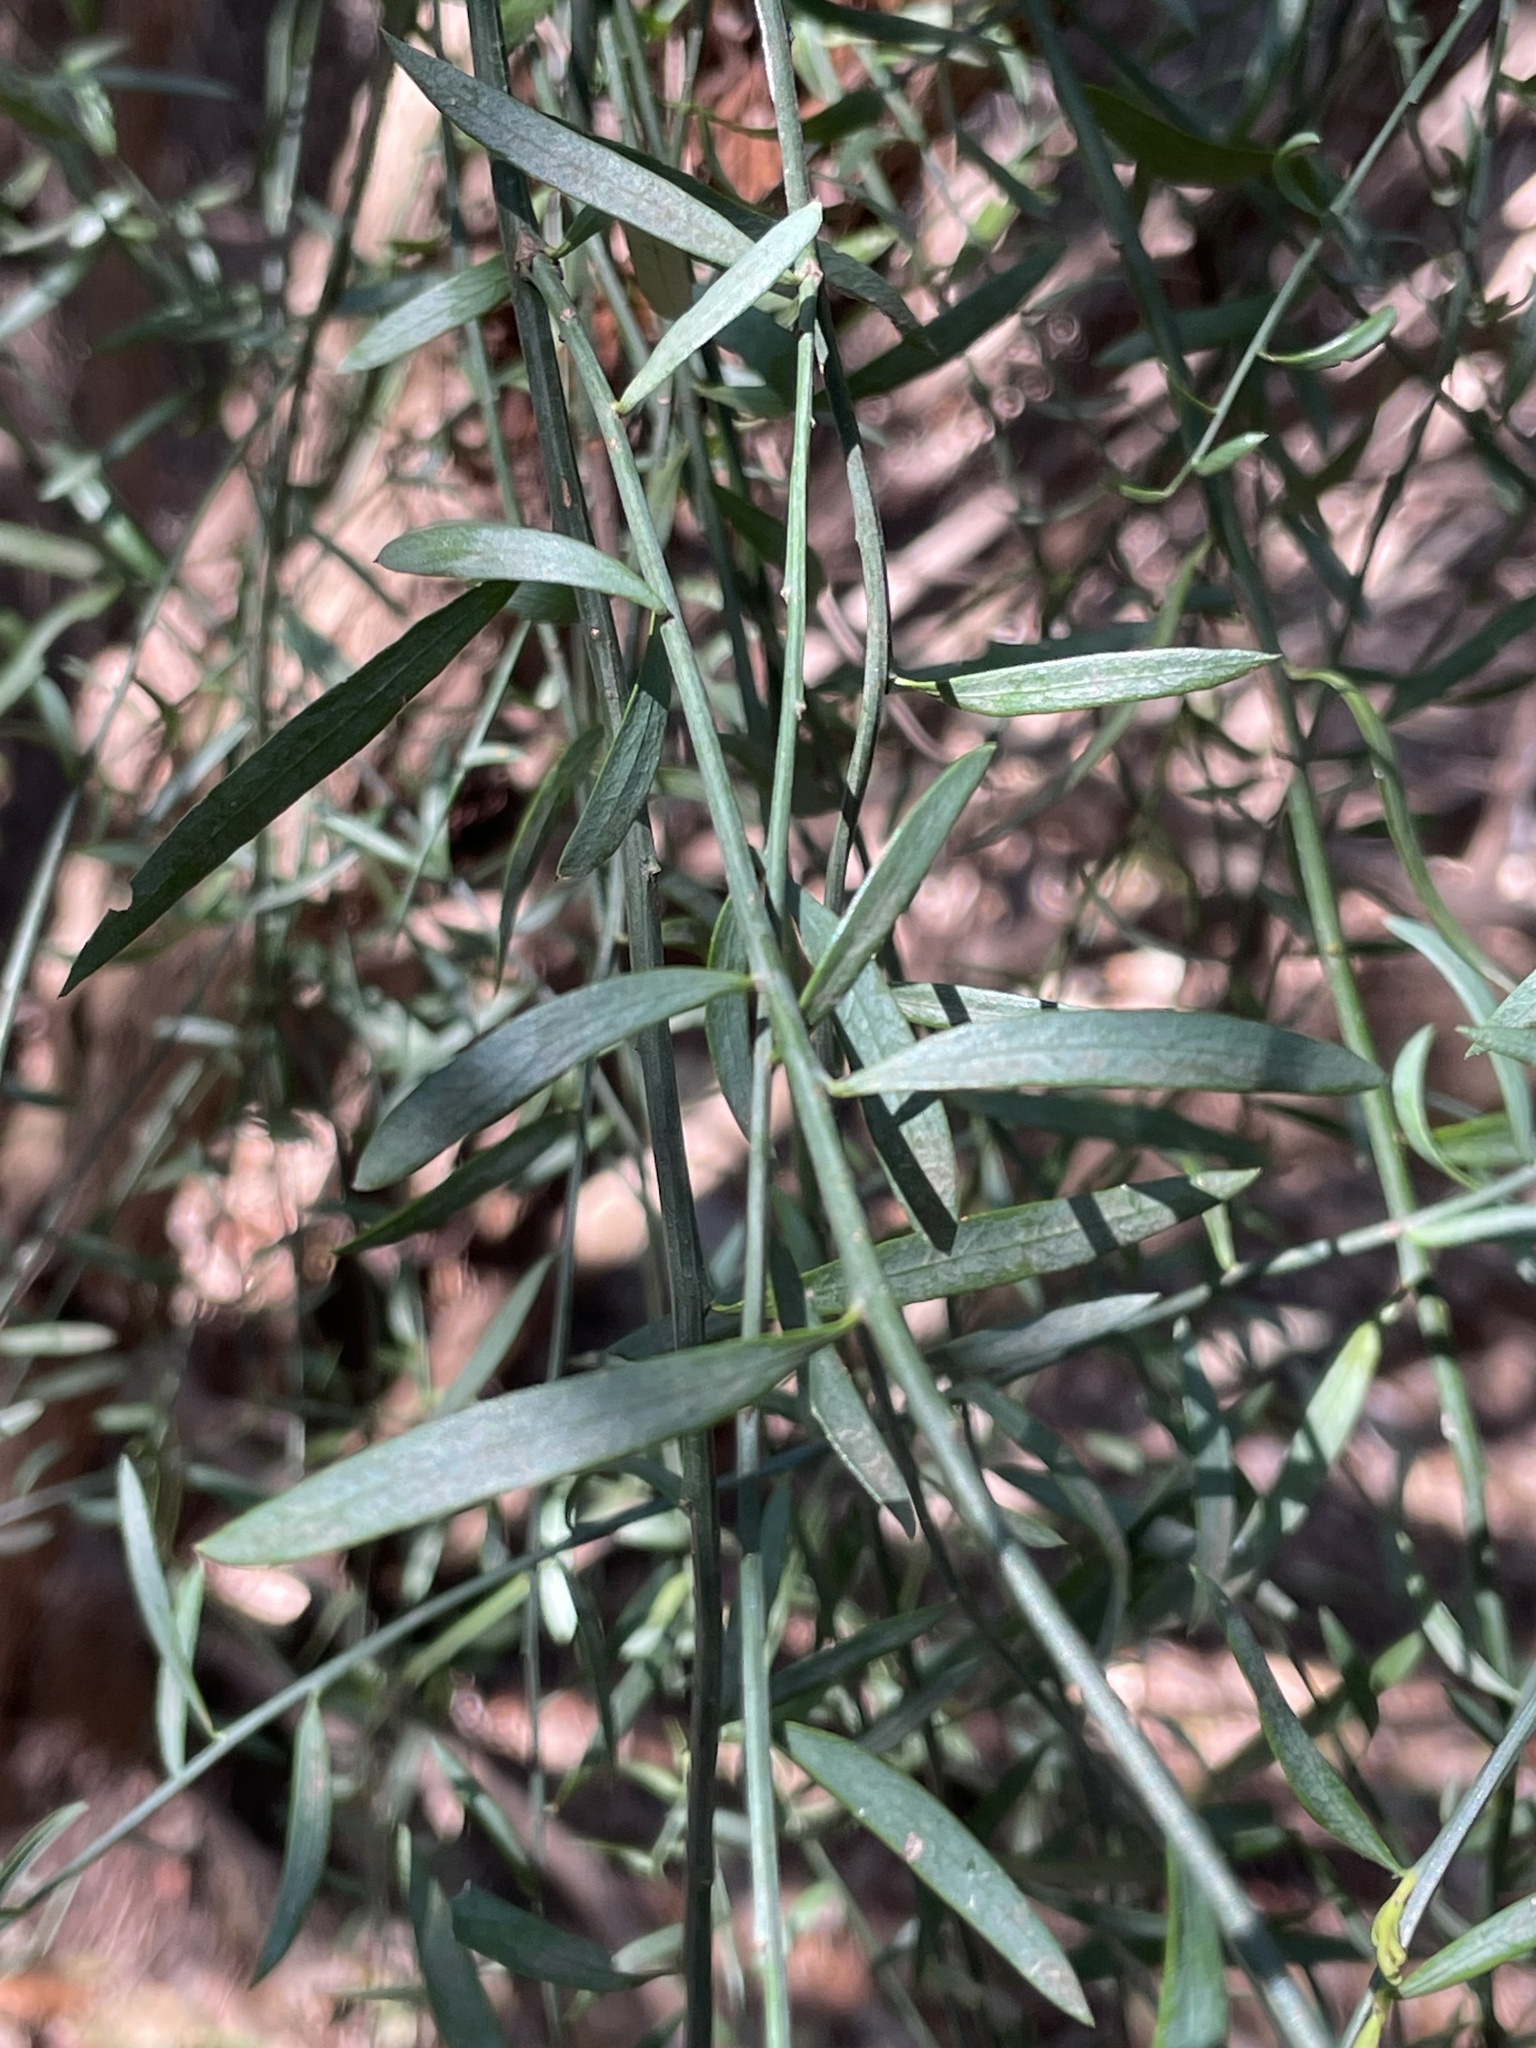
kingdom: Plantae
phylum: Tracheophyta
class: Magnoliopsida
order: Santalales
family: Santalaceae
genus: Osyris
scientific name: Osyris alba
